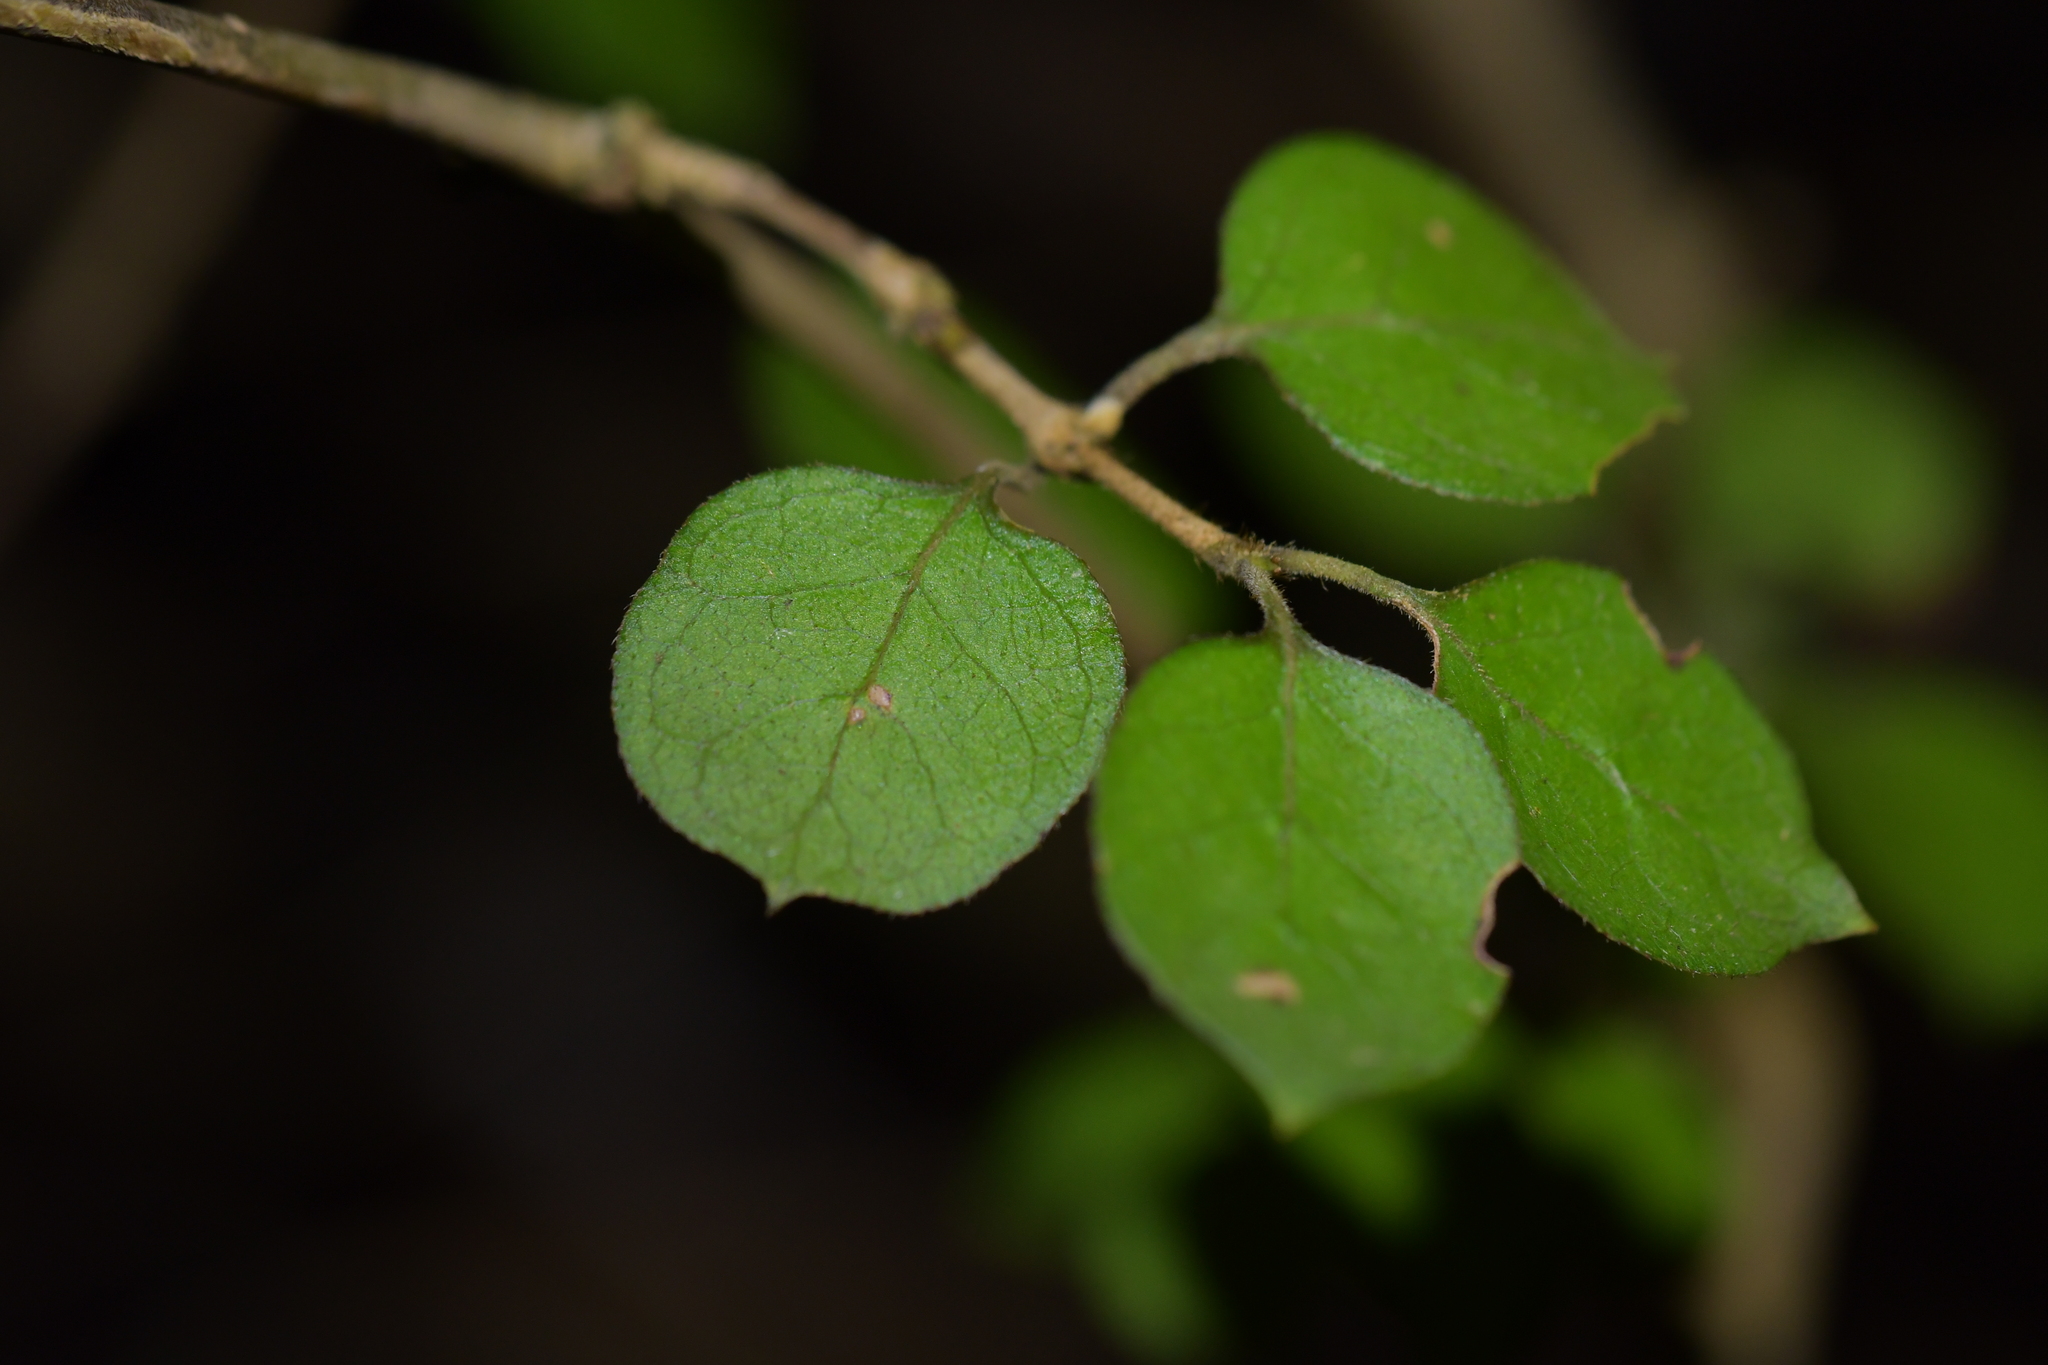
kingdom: Plantae
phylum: Tracheophyta
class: Magnoliopsida
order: Gentianales
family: Rubiaceae
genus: Coprosma
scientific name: Coprosma rotundifolia
